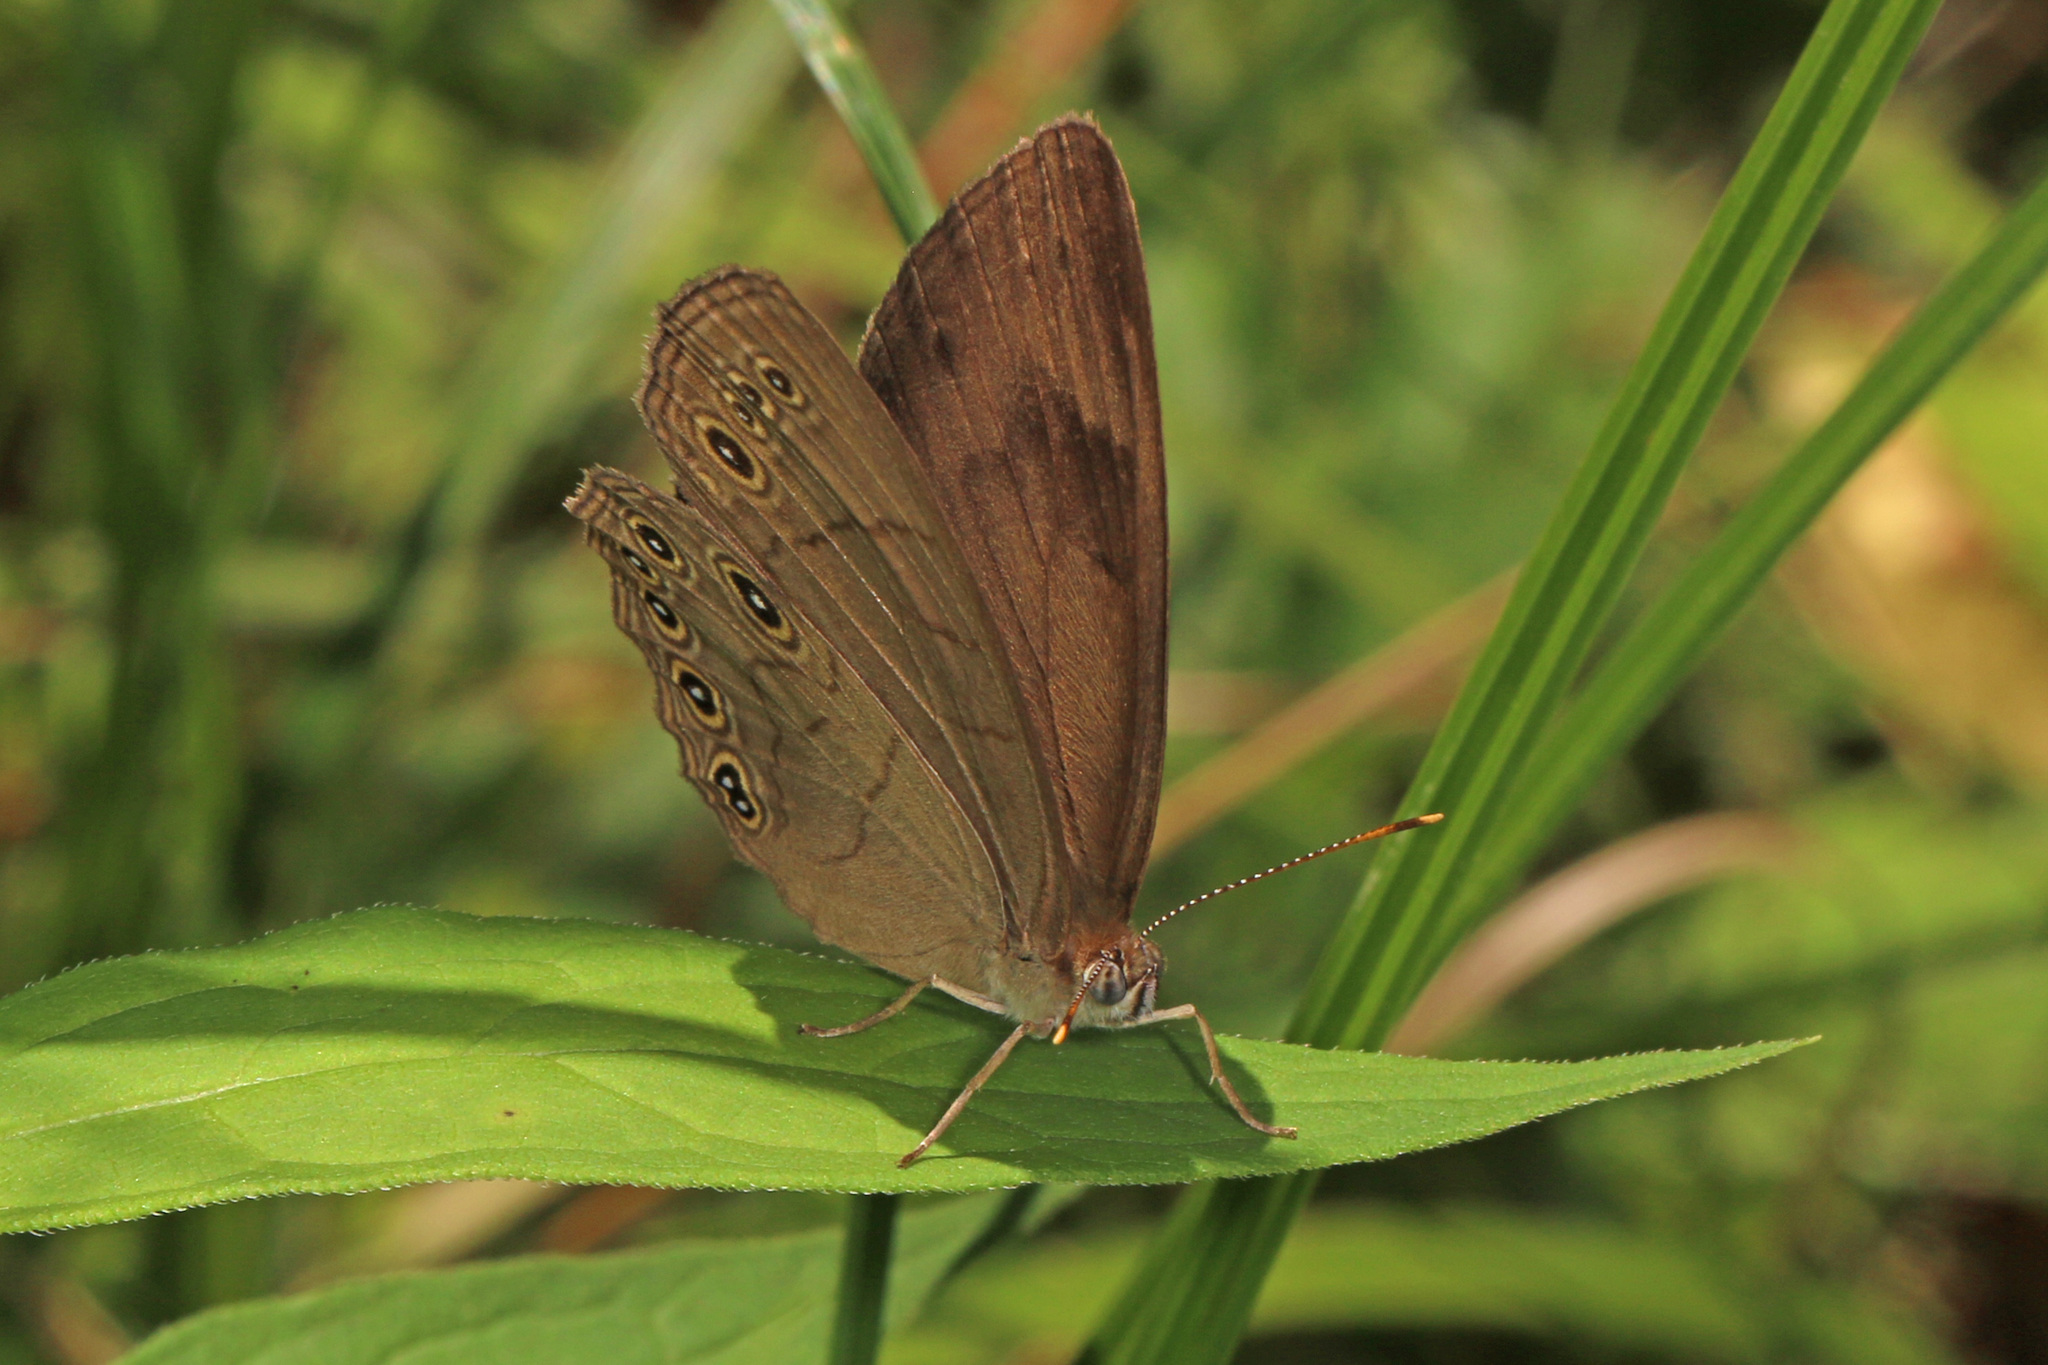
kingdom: Animalia
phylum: Arthropoda
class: Insecta
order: Lepidoptera
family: Nymphalidae
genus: Lethe
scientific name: Lethe eurydice
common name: Eyed brown
